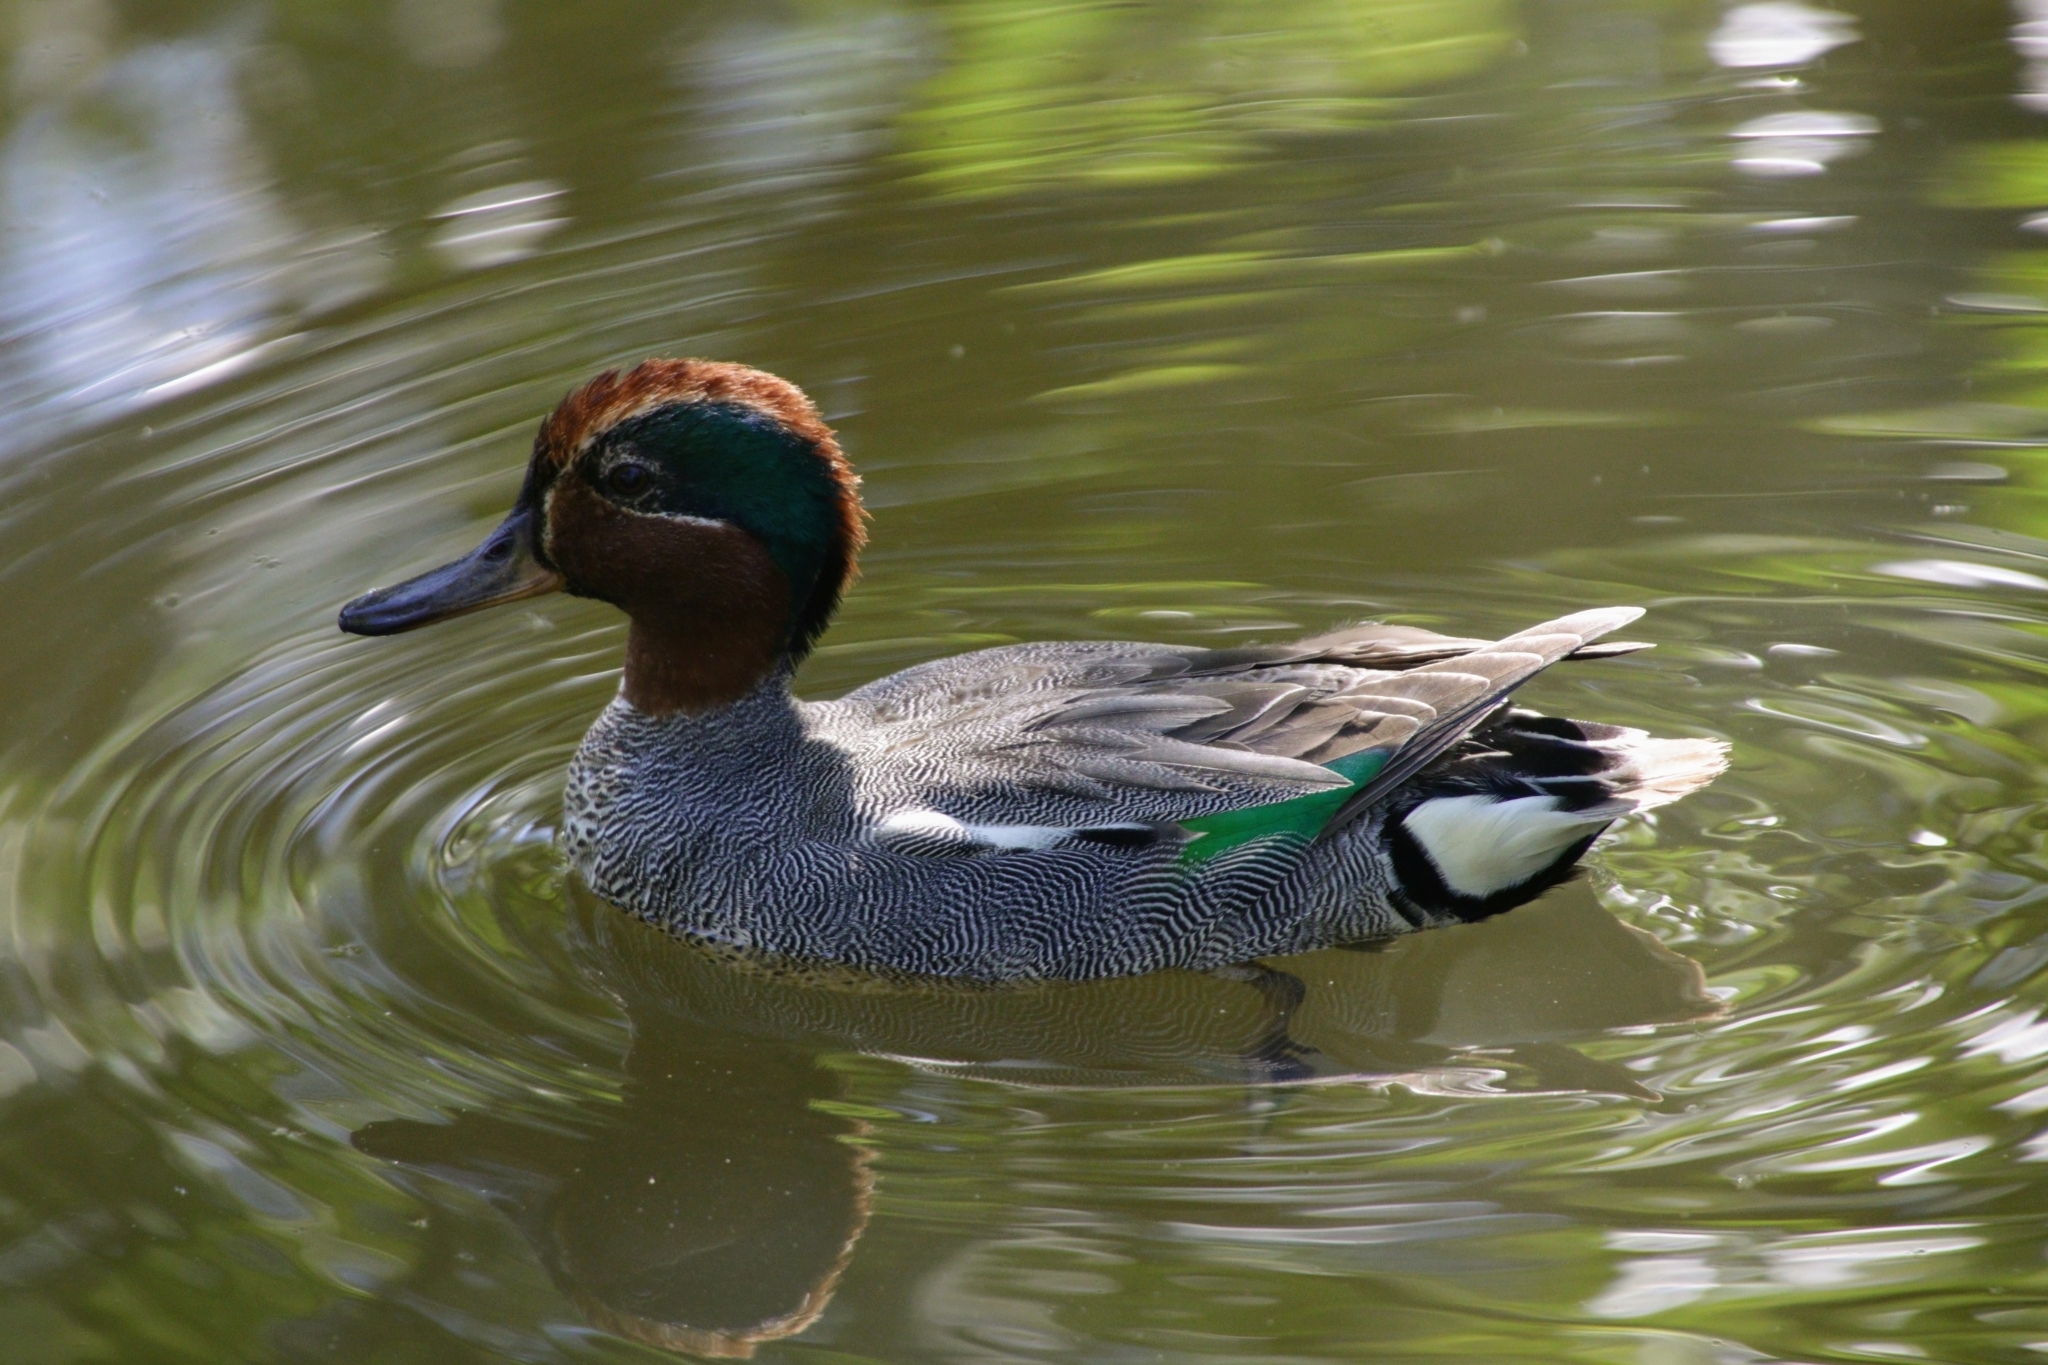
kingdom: Animalia
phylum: Chordata
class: Aves
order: Anseriformes
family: Anatidae
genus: Anas
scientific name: Anas crecca
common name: Eurasian teal
